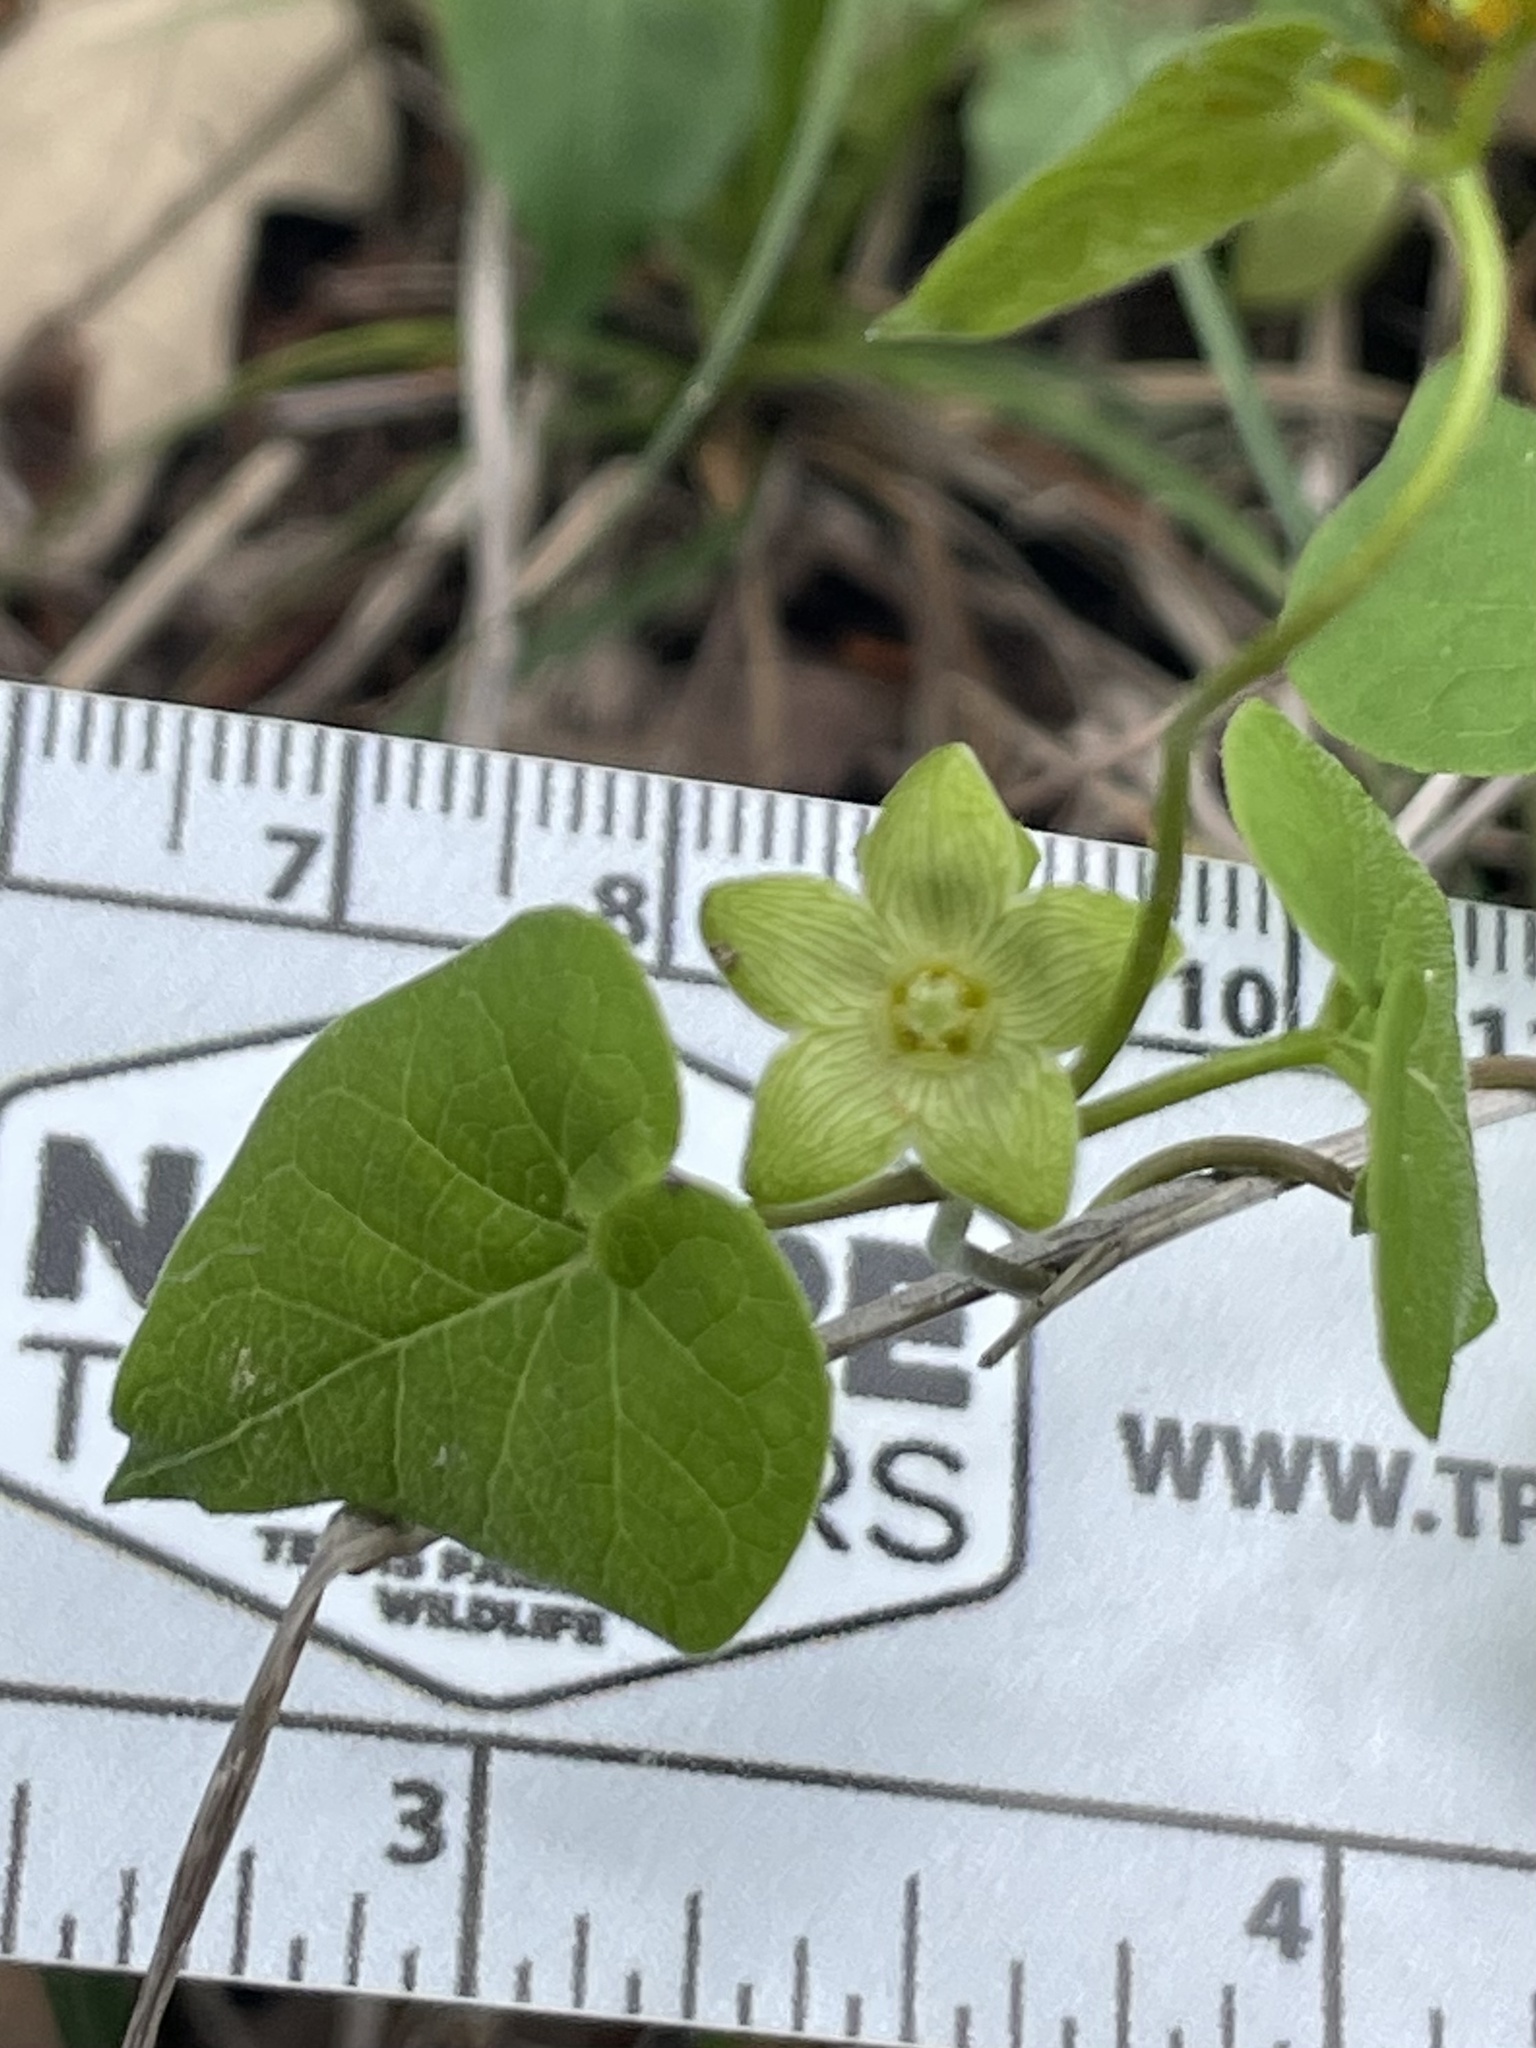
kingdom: Plantae
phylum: Tracheophyta
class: Magnoliopsida
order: Gentianales
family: Apocynaceae
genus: Matelea
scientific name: Matelea edwardsensis
